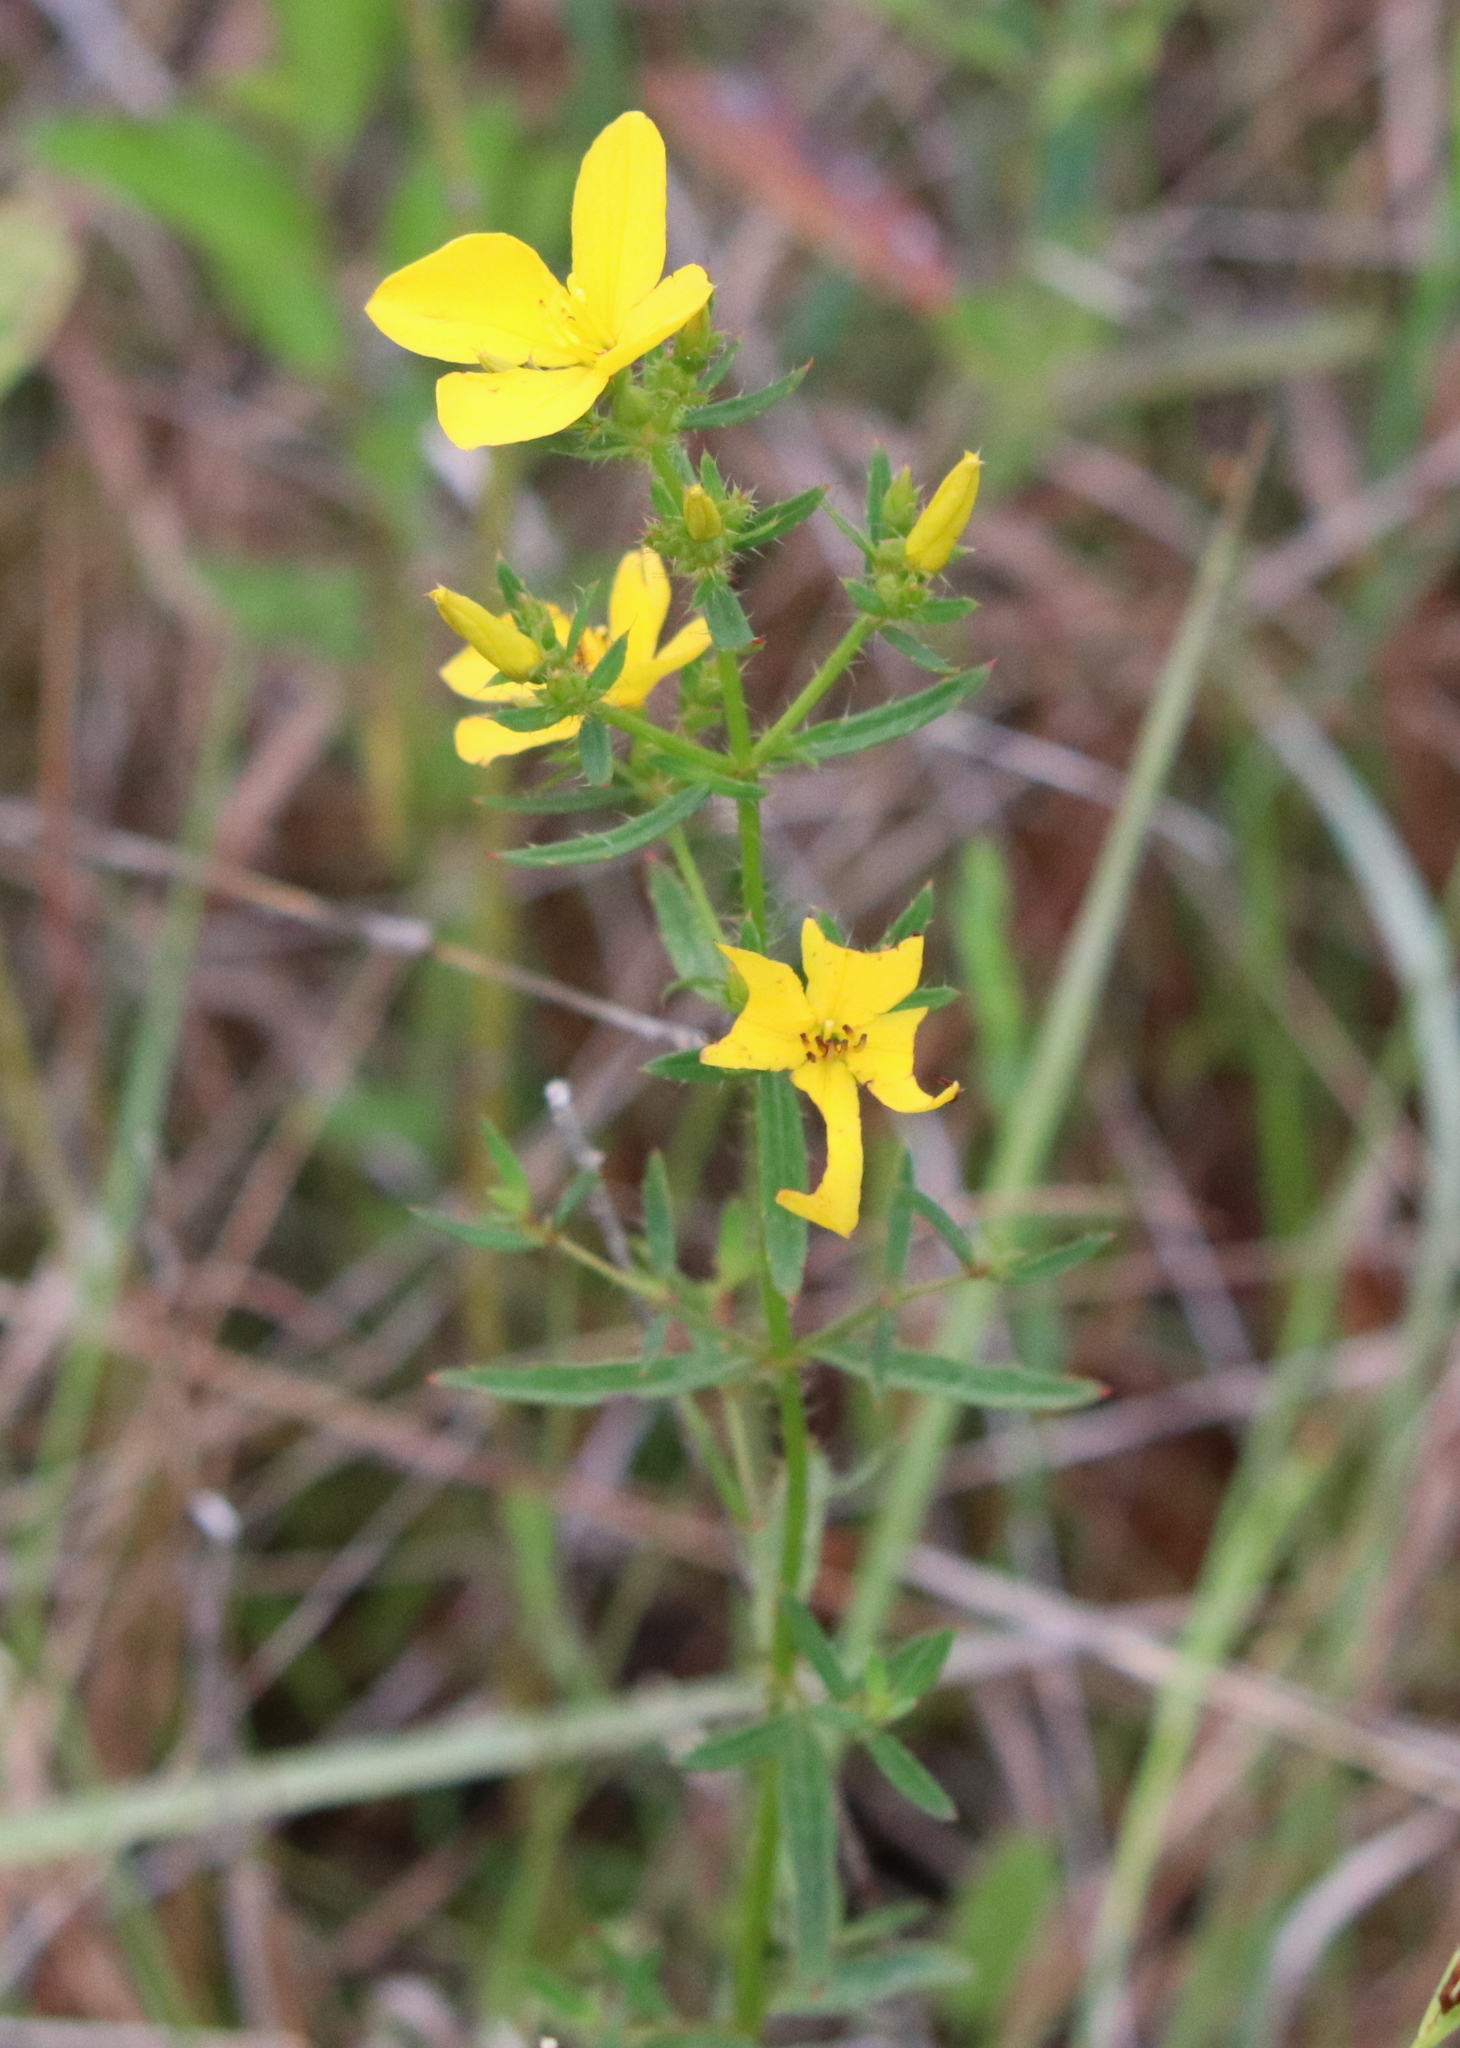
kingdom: Plantae
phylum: Tracheophyta
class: Magnoliopsida
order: Myrtales
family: Melastomataceae
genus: Rhexia
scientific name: Rhexia lutea
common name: Golden meadow-beauty
